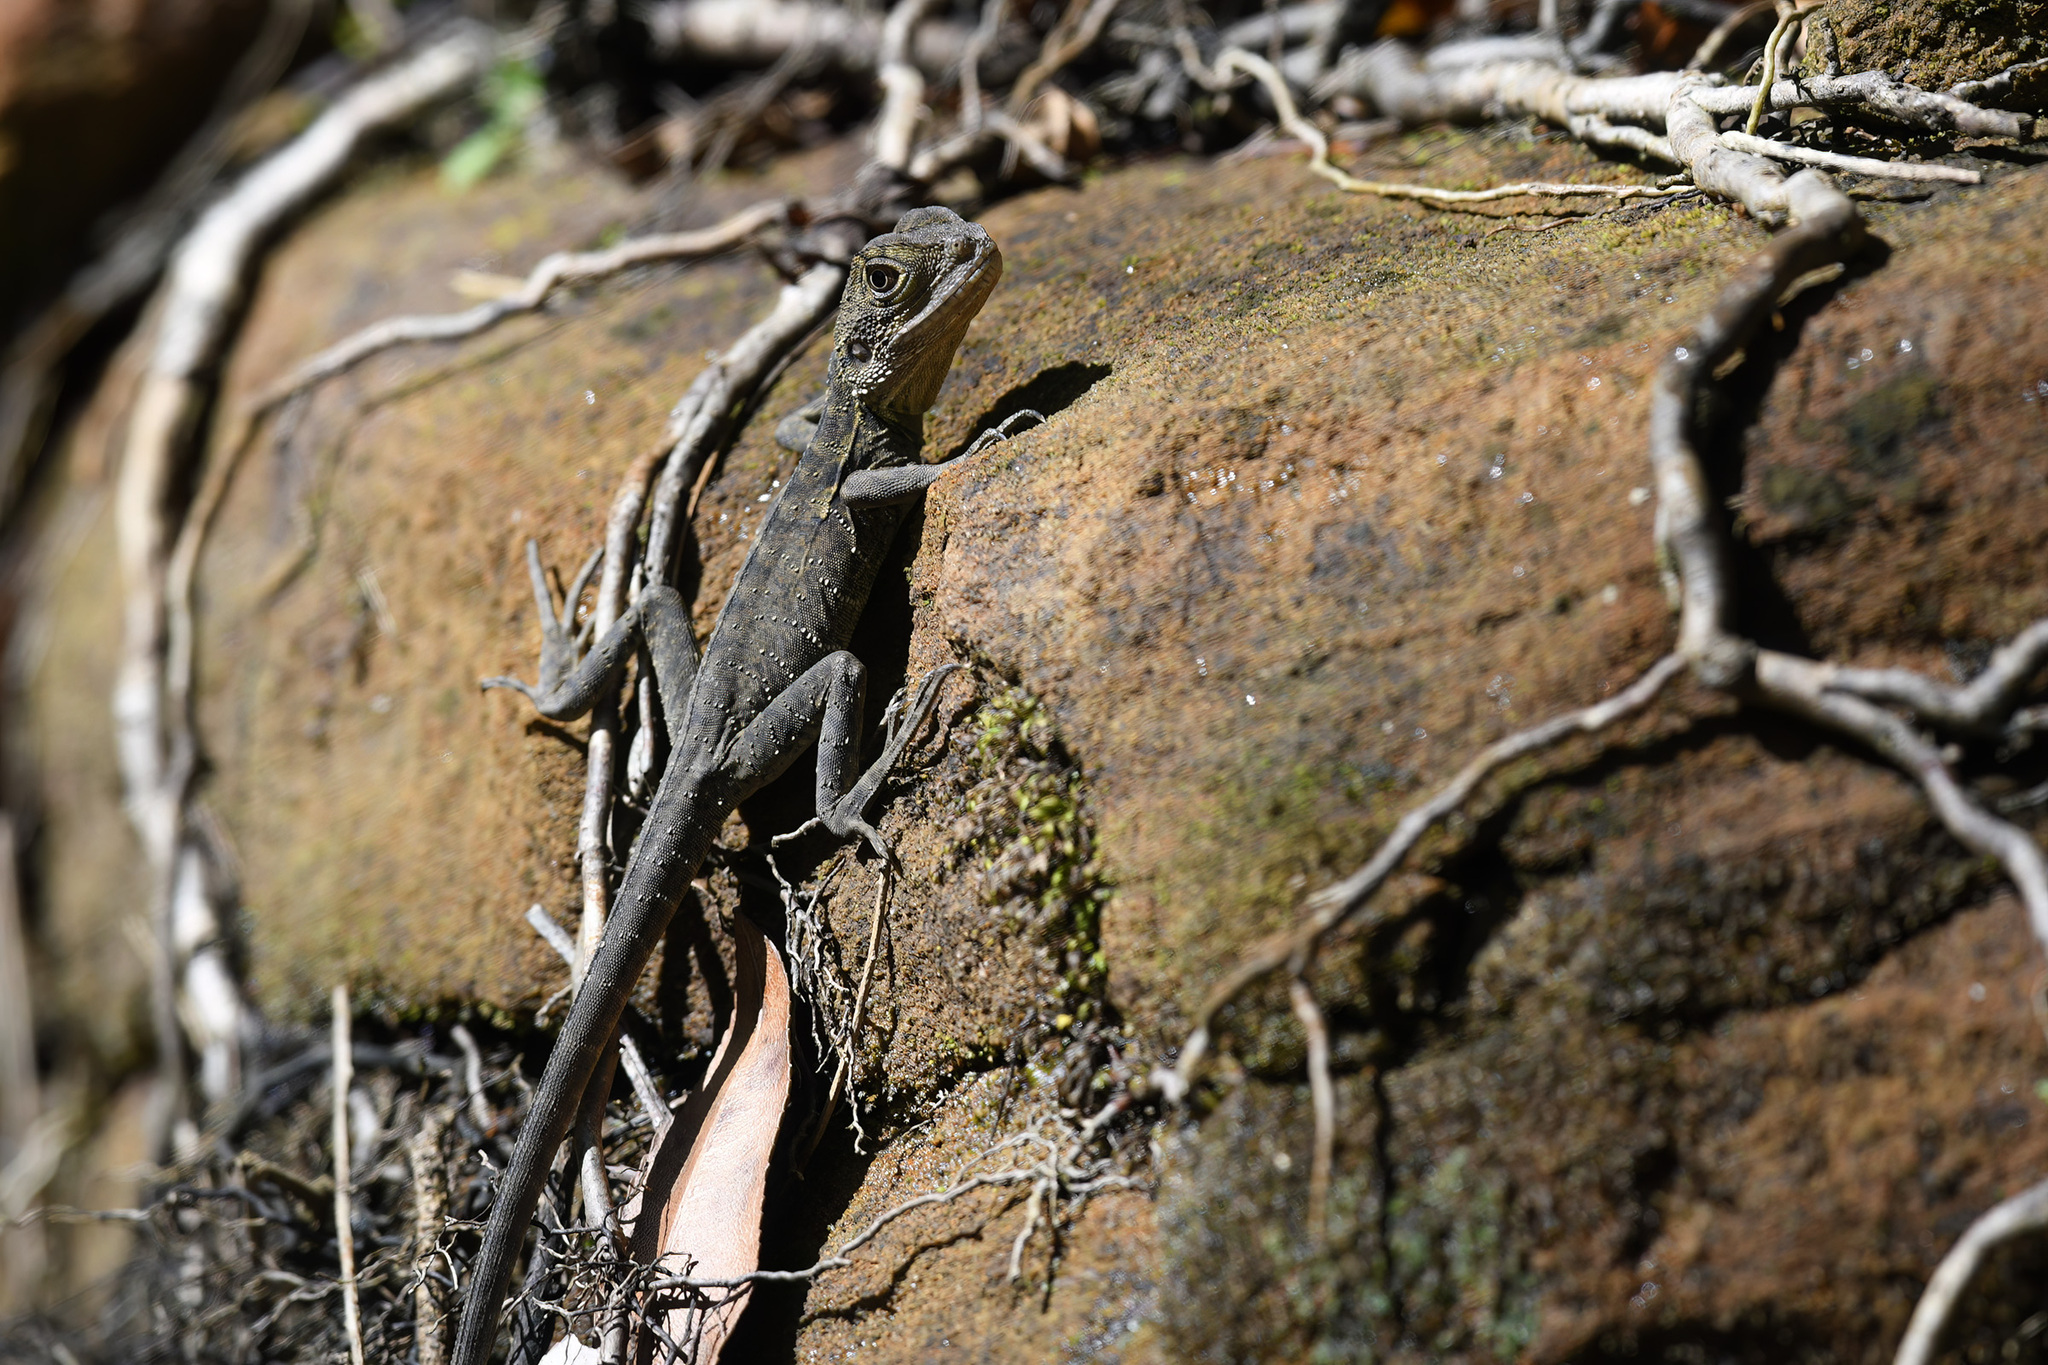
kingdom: Animalia
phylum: Chordata
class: Squamata
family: Agamidae
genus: Intellagama
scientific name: Intellagama lesueurii
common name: Eastern water dragon
